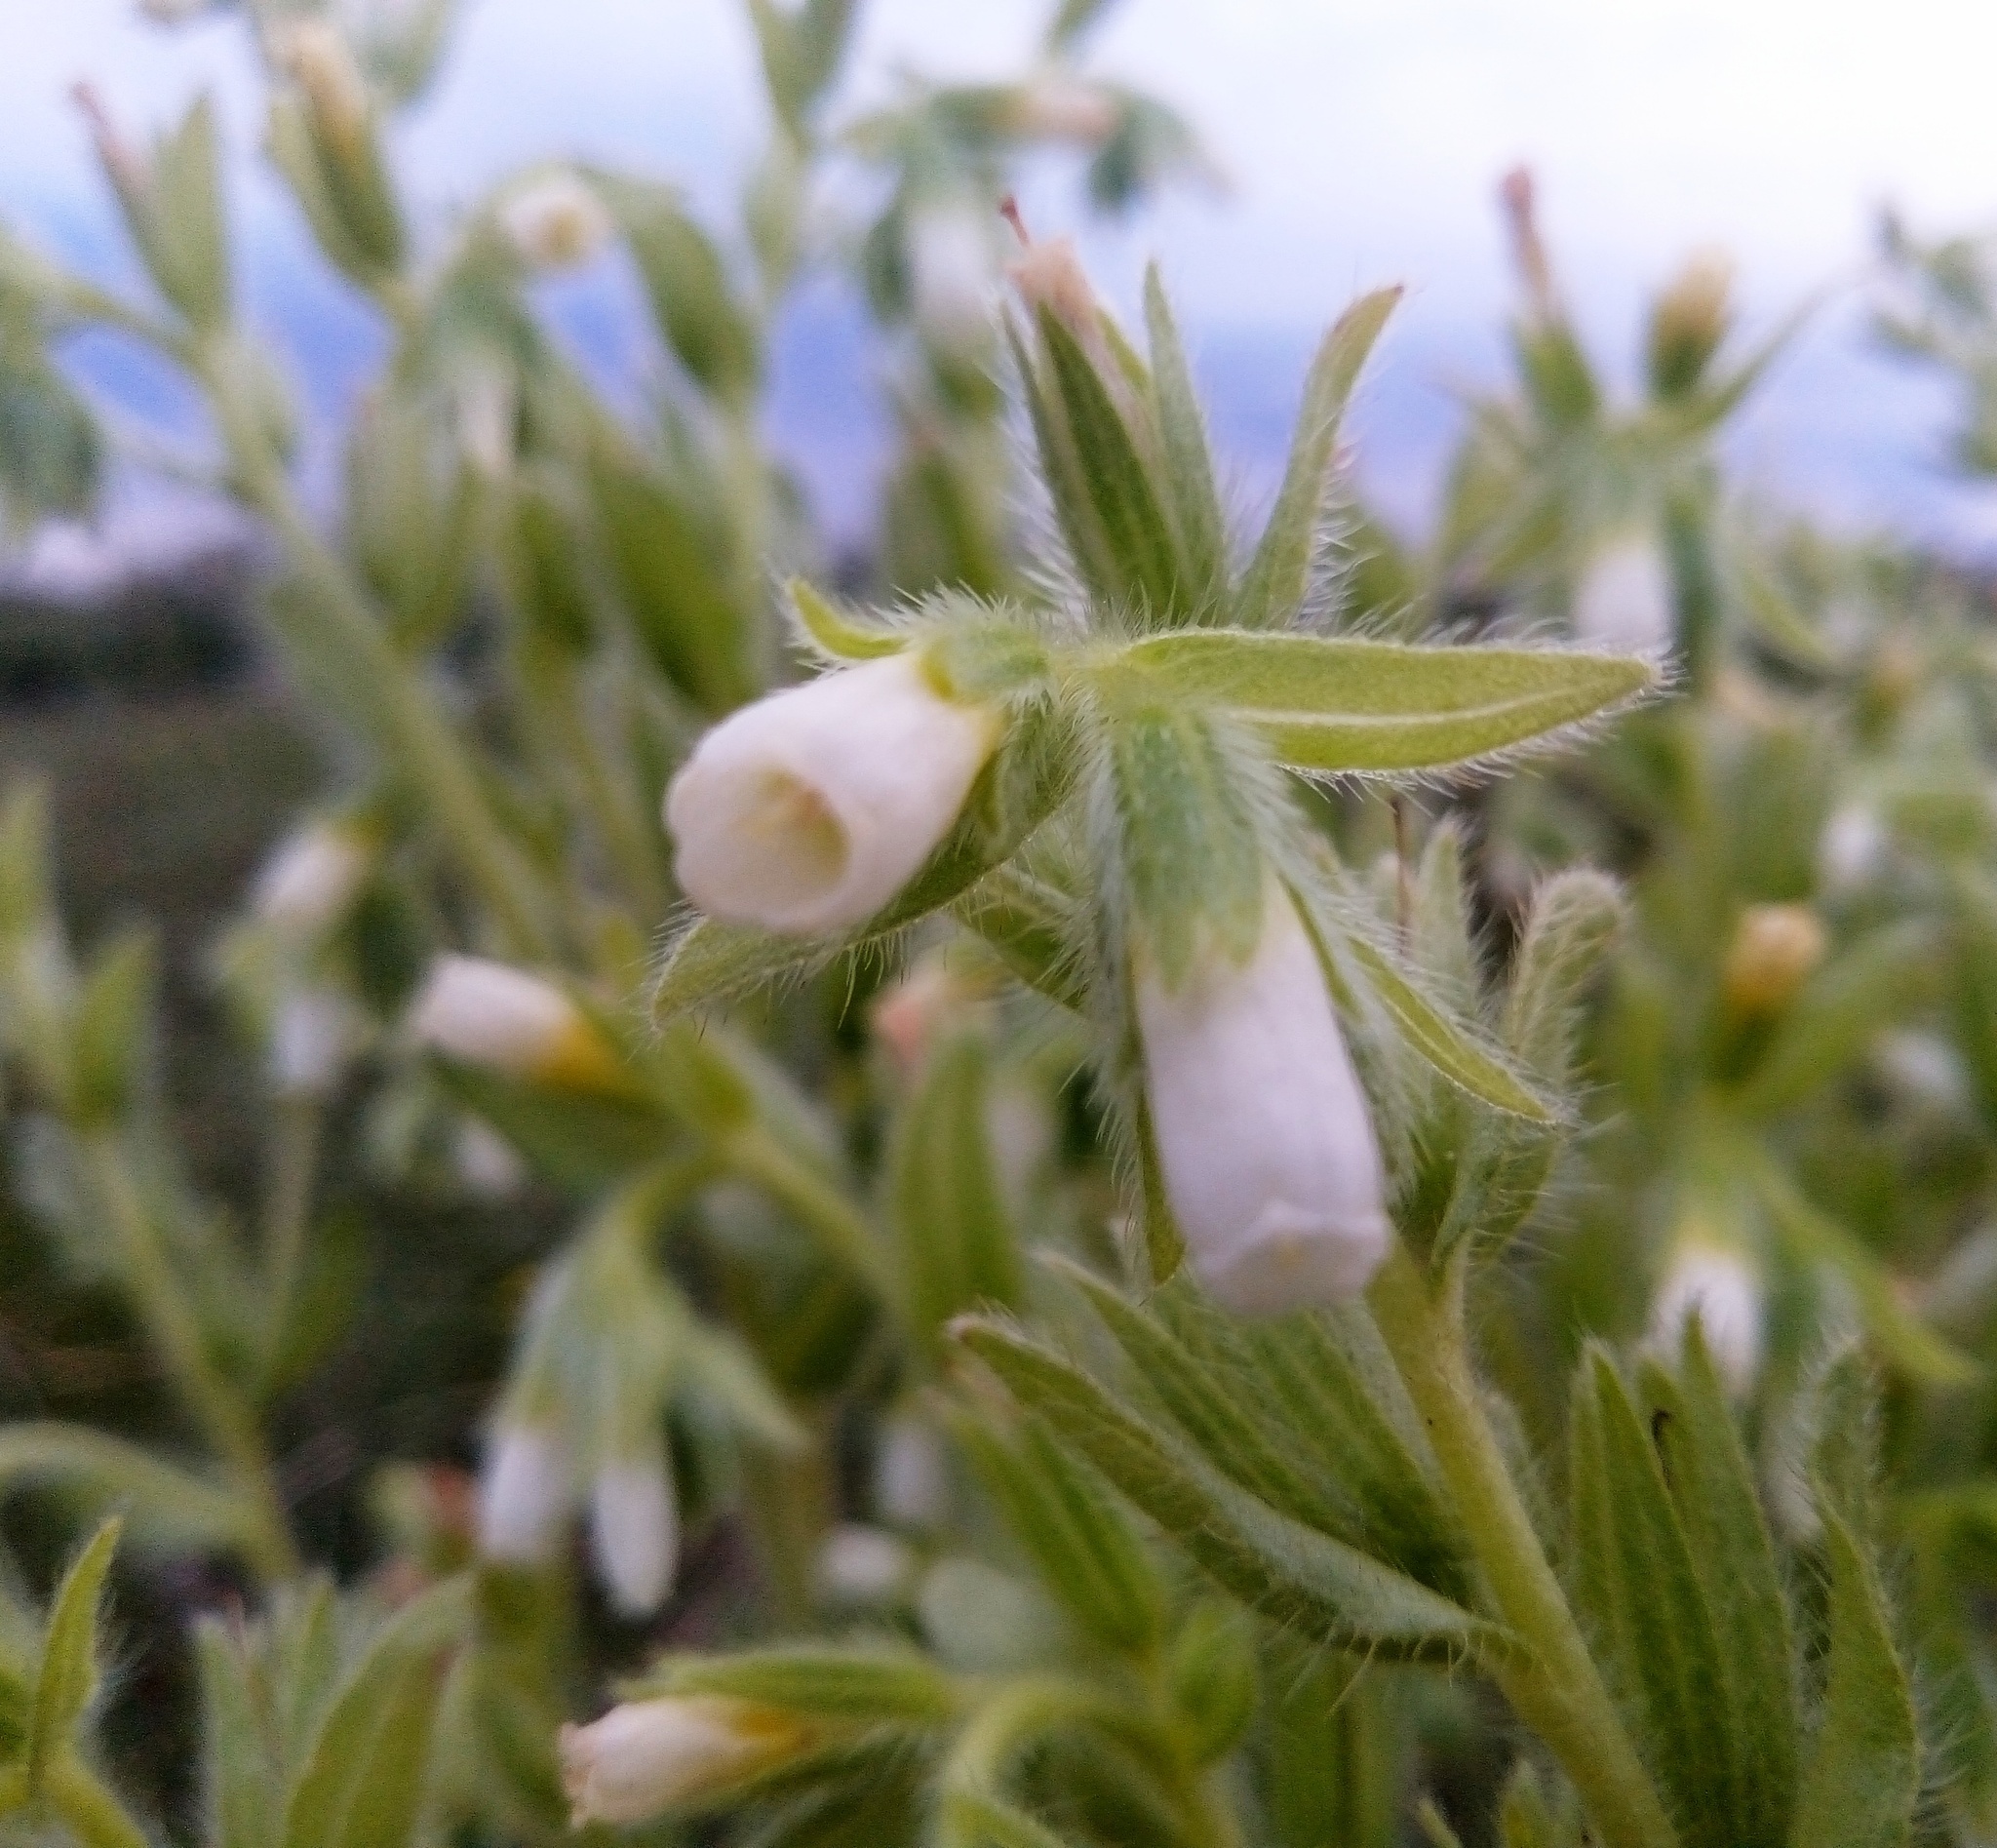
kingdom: Plantae
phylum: Tracheophyta
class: Magnoliopsida
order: Boraginales
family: Boraginaceae
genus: Onosma
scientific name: Onosma tinctoria
